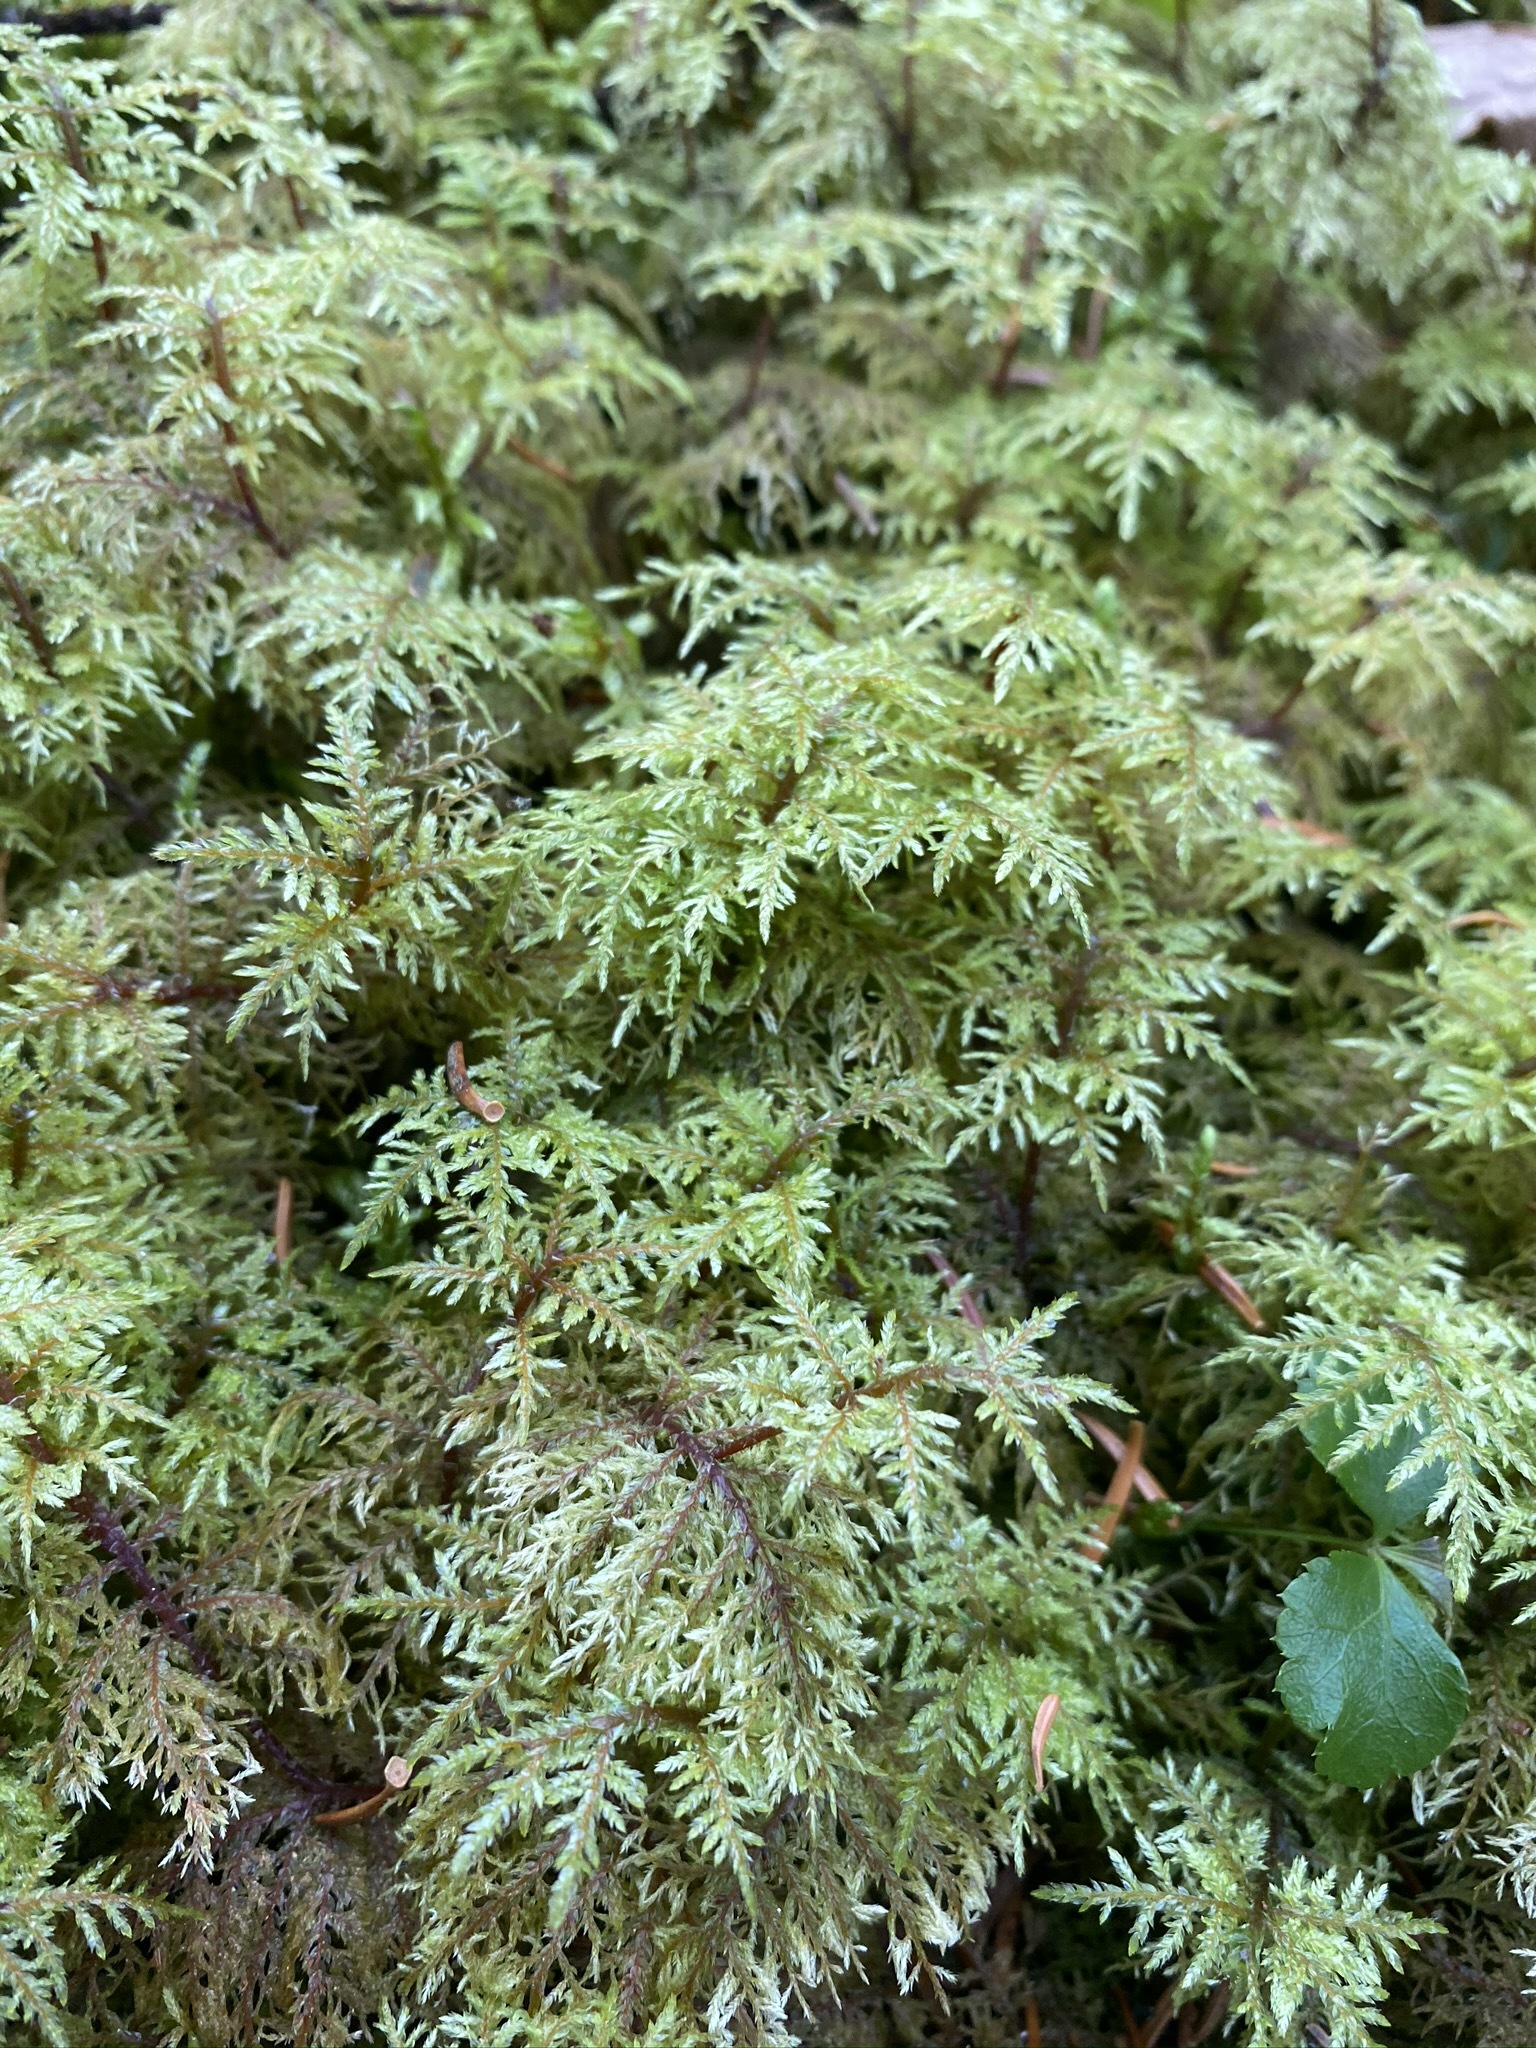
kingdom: Plantae
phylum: Bryophyta
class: Bryopsida
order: Hypnales
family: Hylocomiaceae
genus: Hylocomium
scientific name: Hylocomium splendens
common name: Stairstep moss
